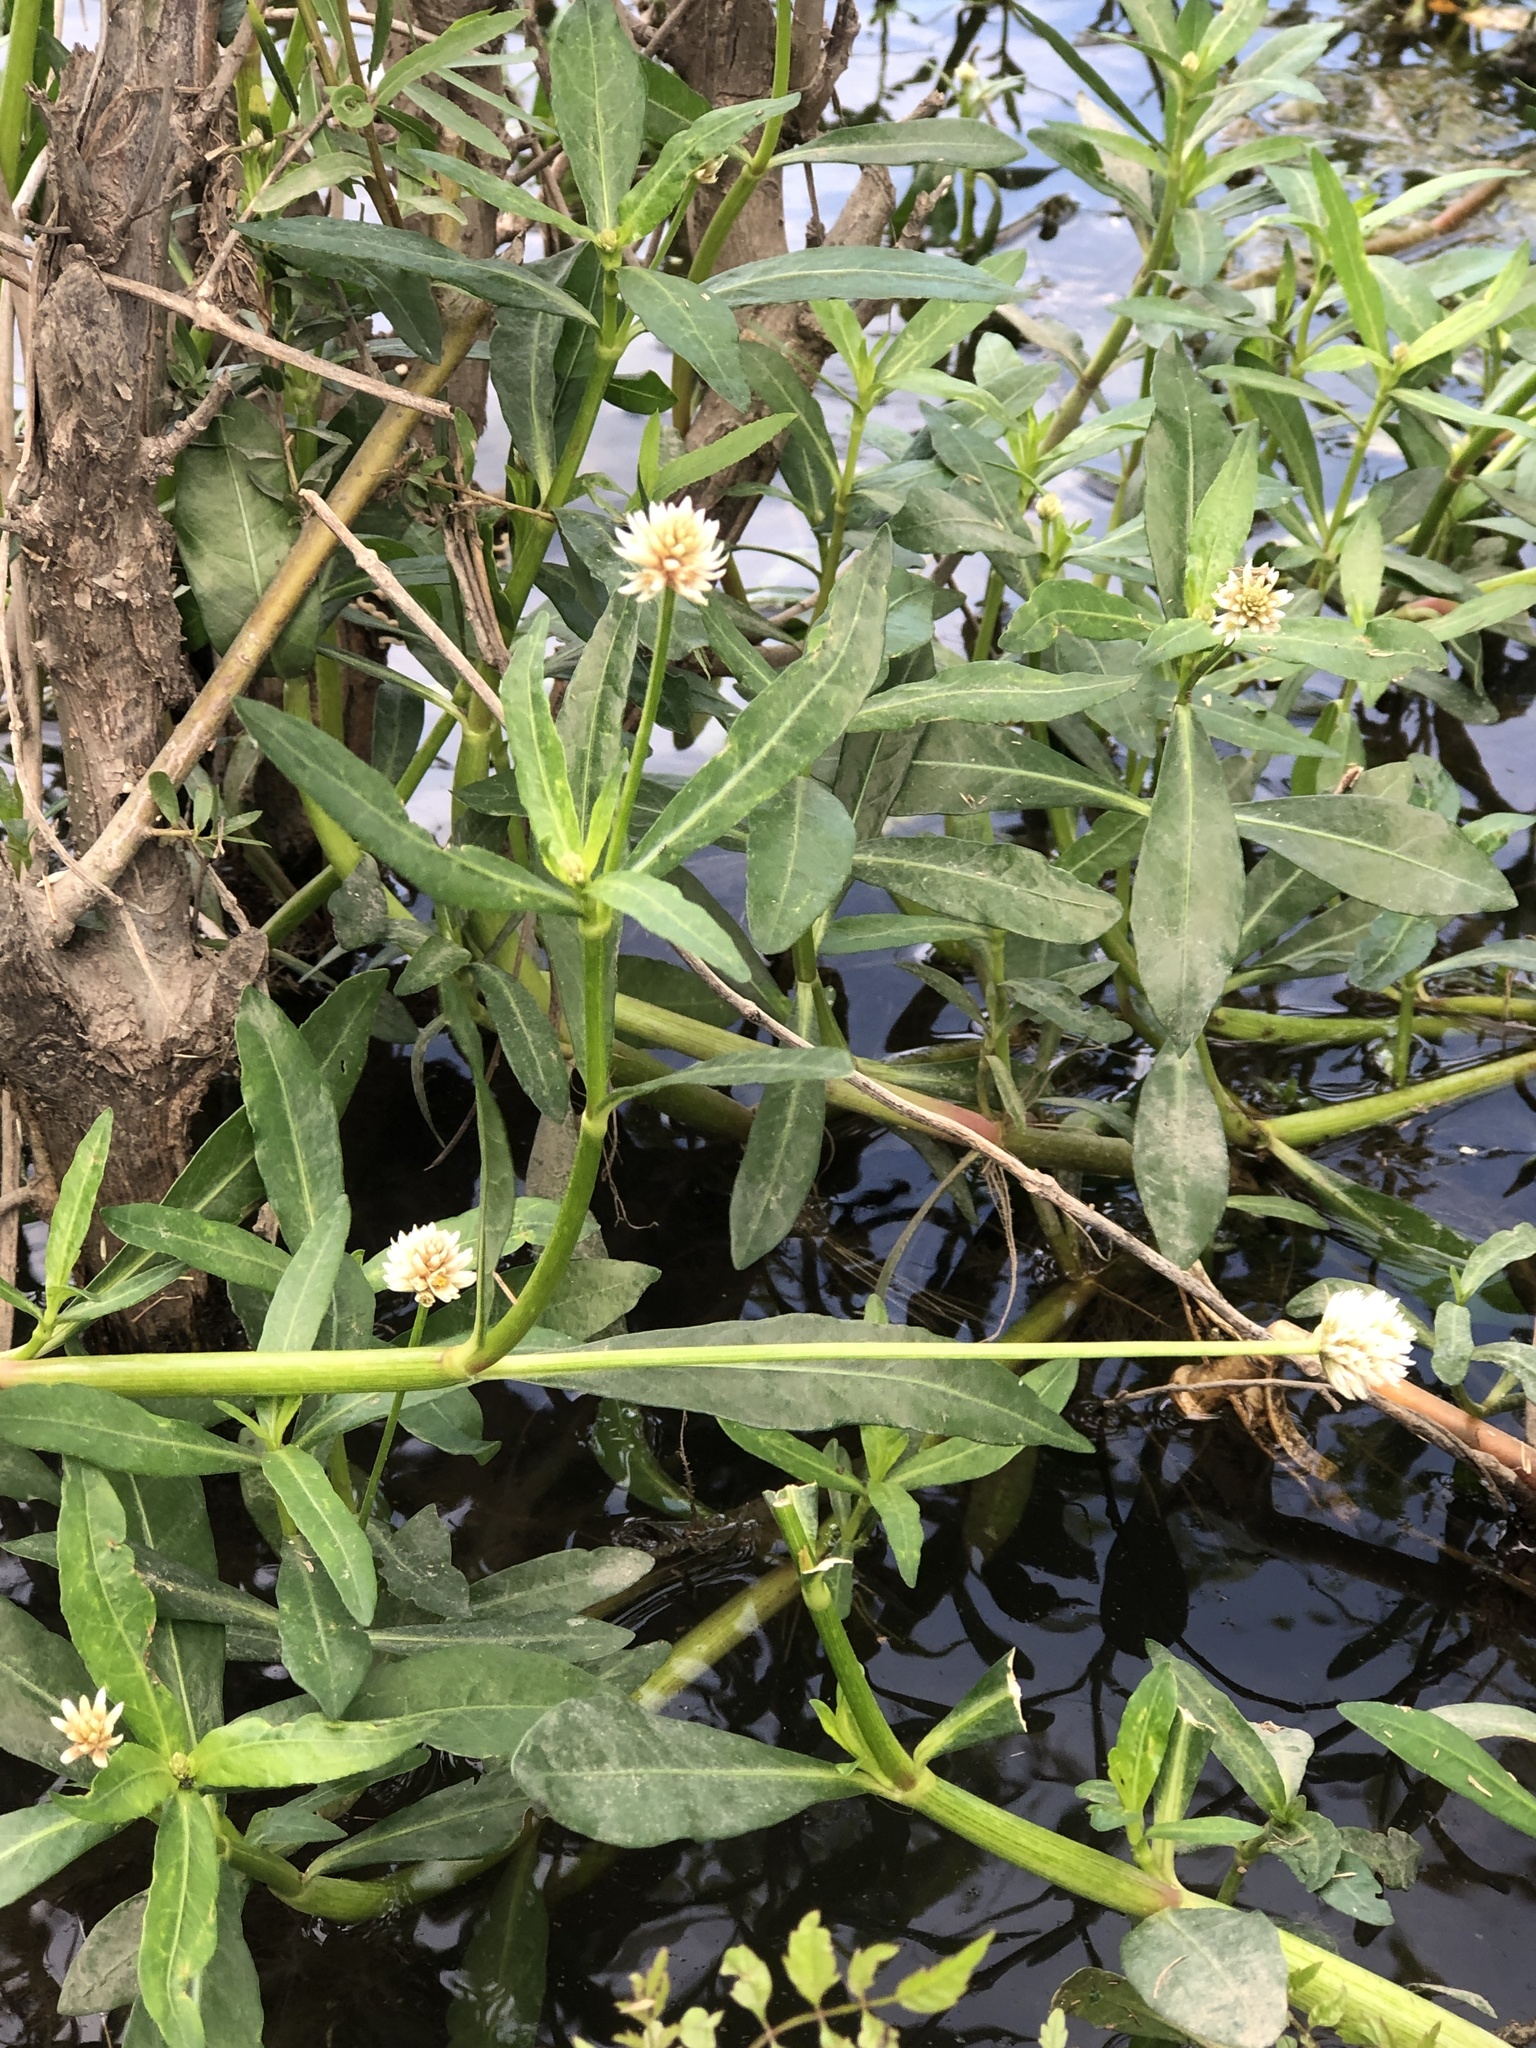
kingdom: Plantae
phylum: Tracheophyta
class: Magnoliopsida
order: Caryophyllales
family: Amaranthaceae
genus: Alternanthera
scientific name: Alternanthera philoxeroides
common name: Alligatorweed
